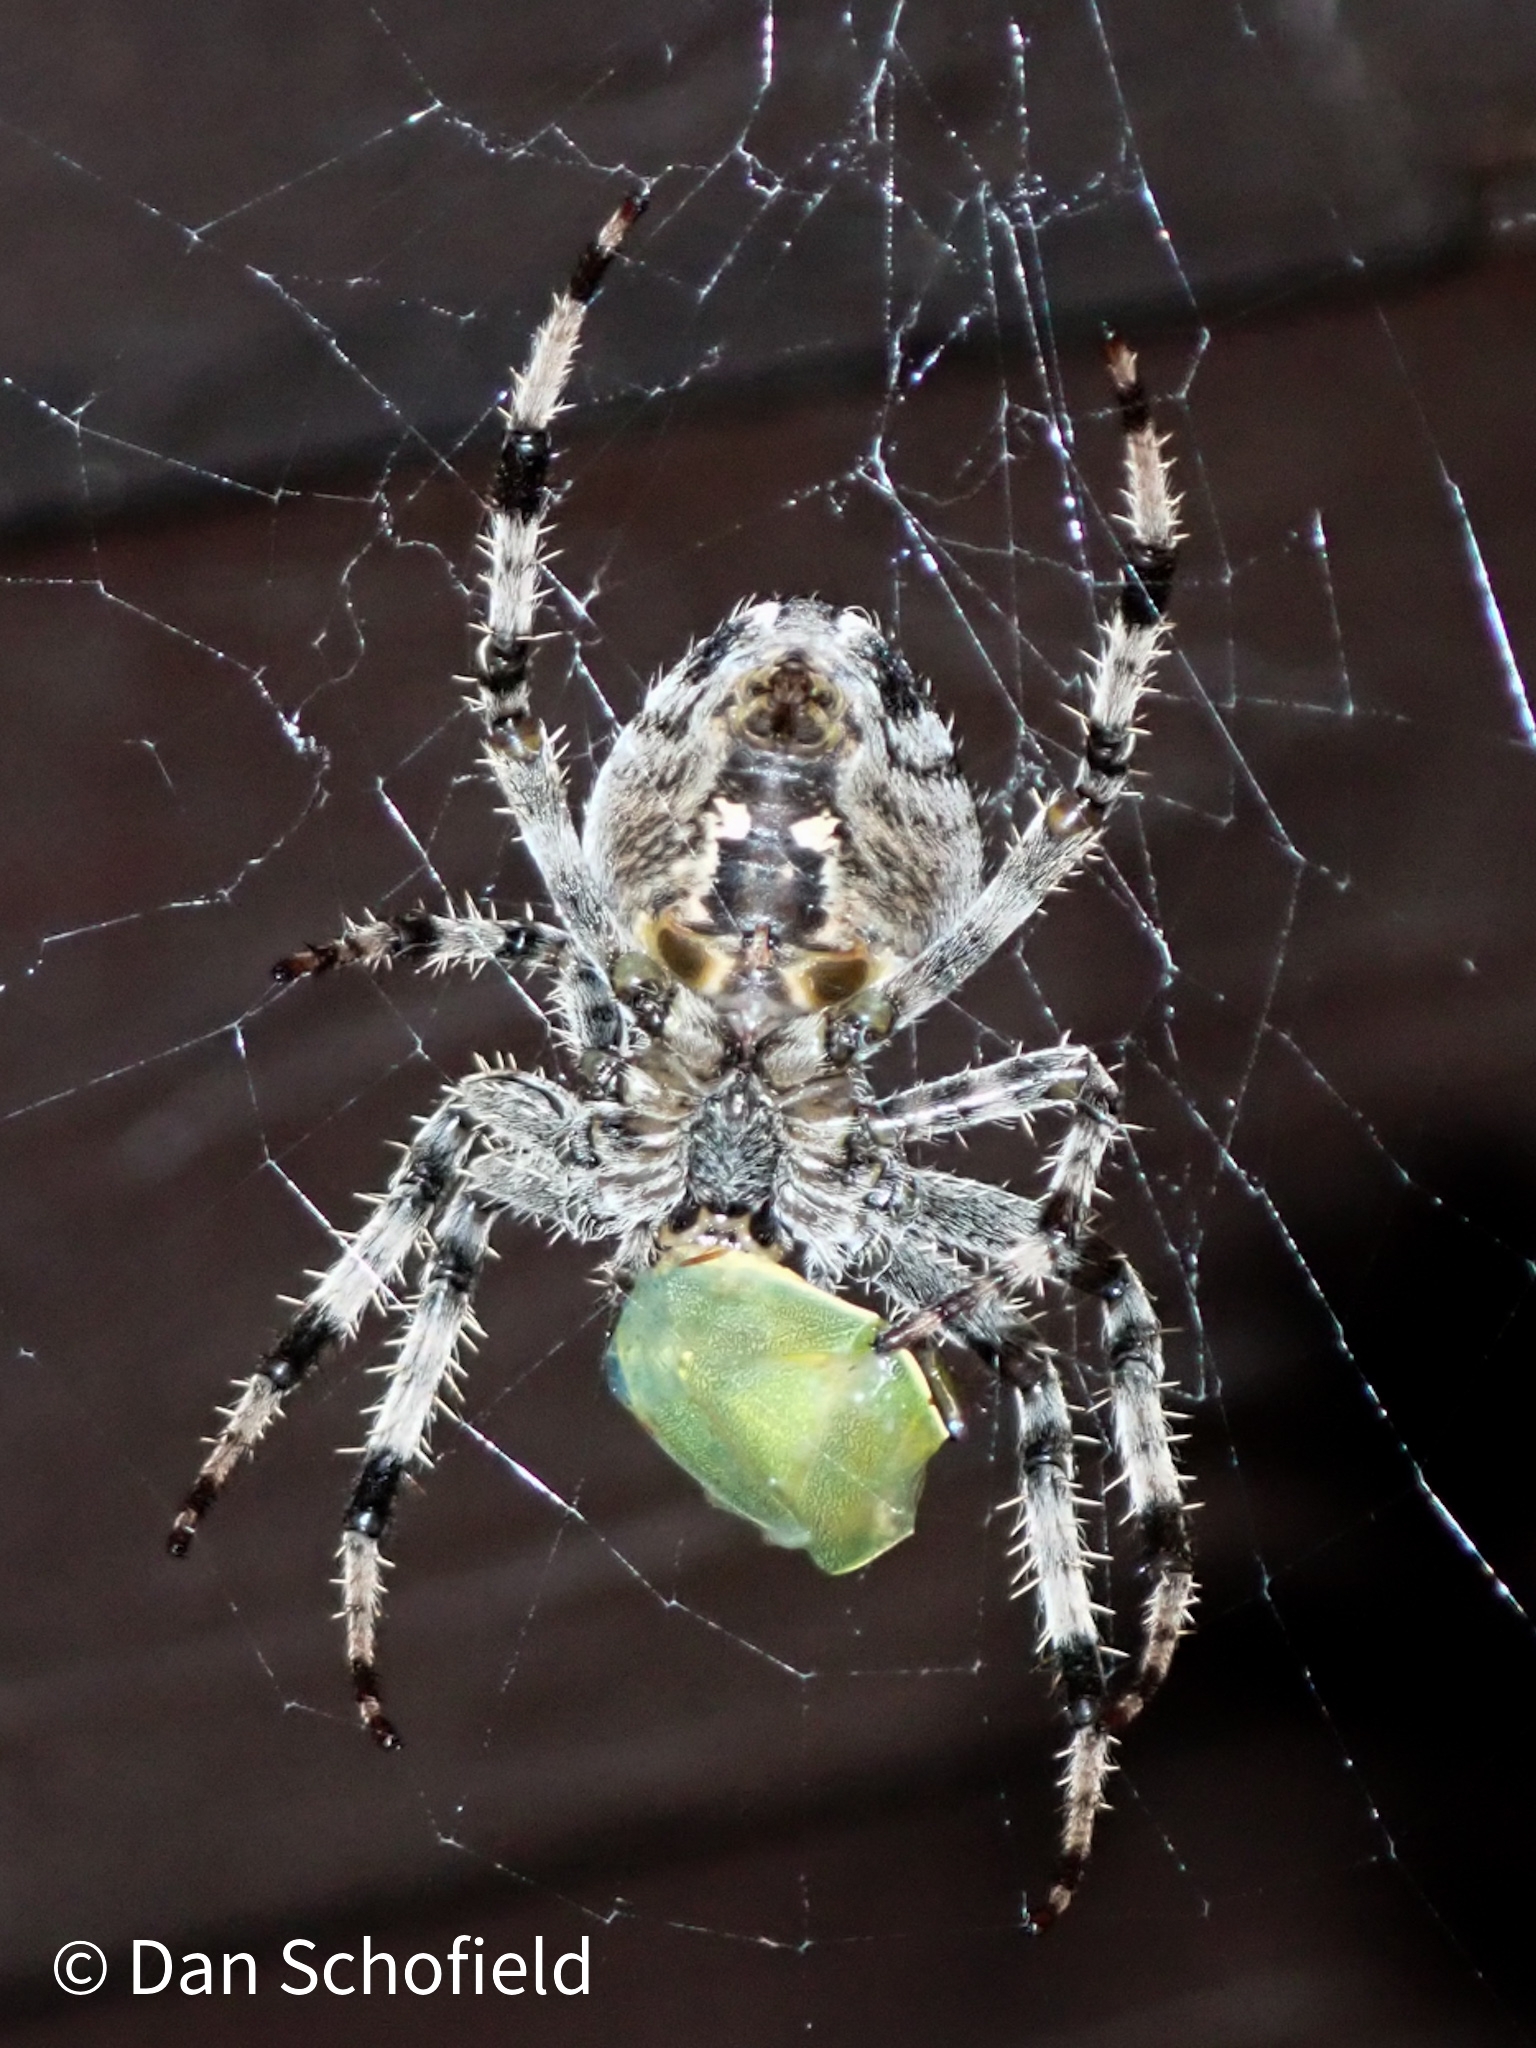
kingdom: Animalia
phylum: Arthropoda
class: Arachnida
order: Araneae
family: Araneidae
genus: Araneus
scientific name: Araneus diadematus
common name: Cross orbweaver
